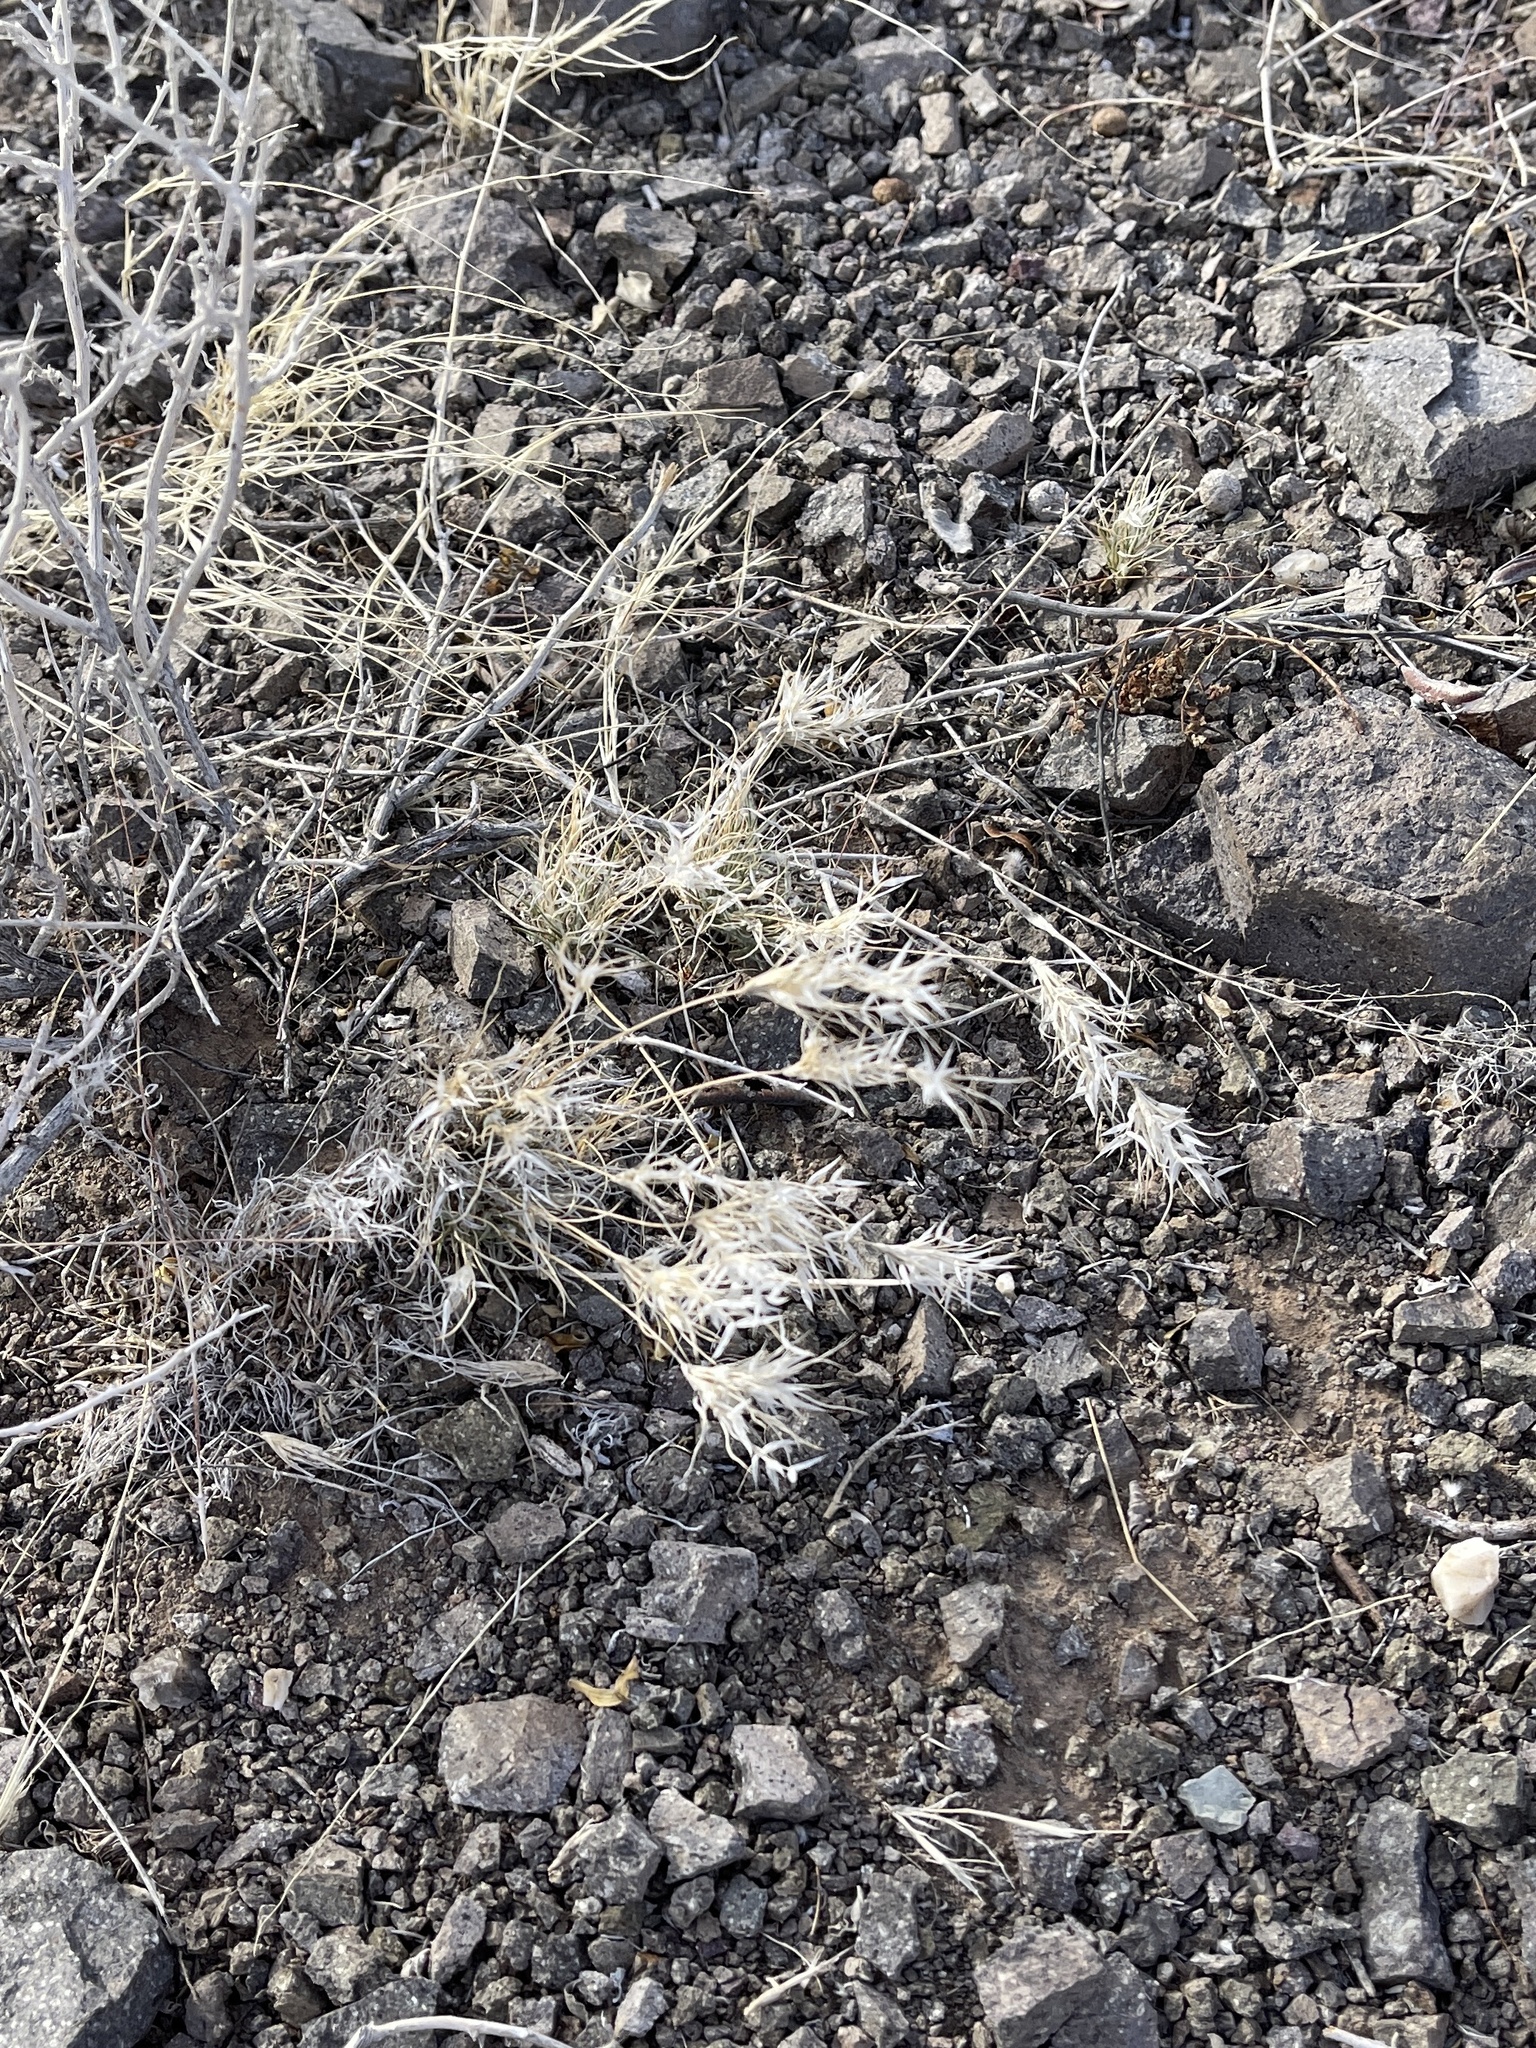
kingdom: Plantae
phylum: Tracheophyta
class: Liliopsida
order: Poales
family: Poaceae
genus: Dasyochloa
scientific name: Dasyochloa pulchella
